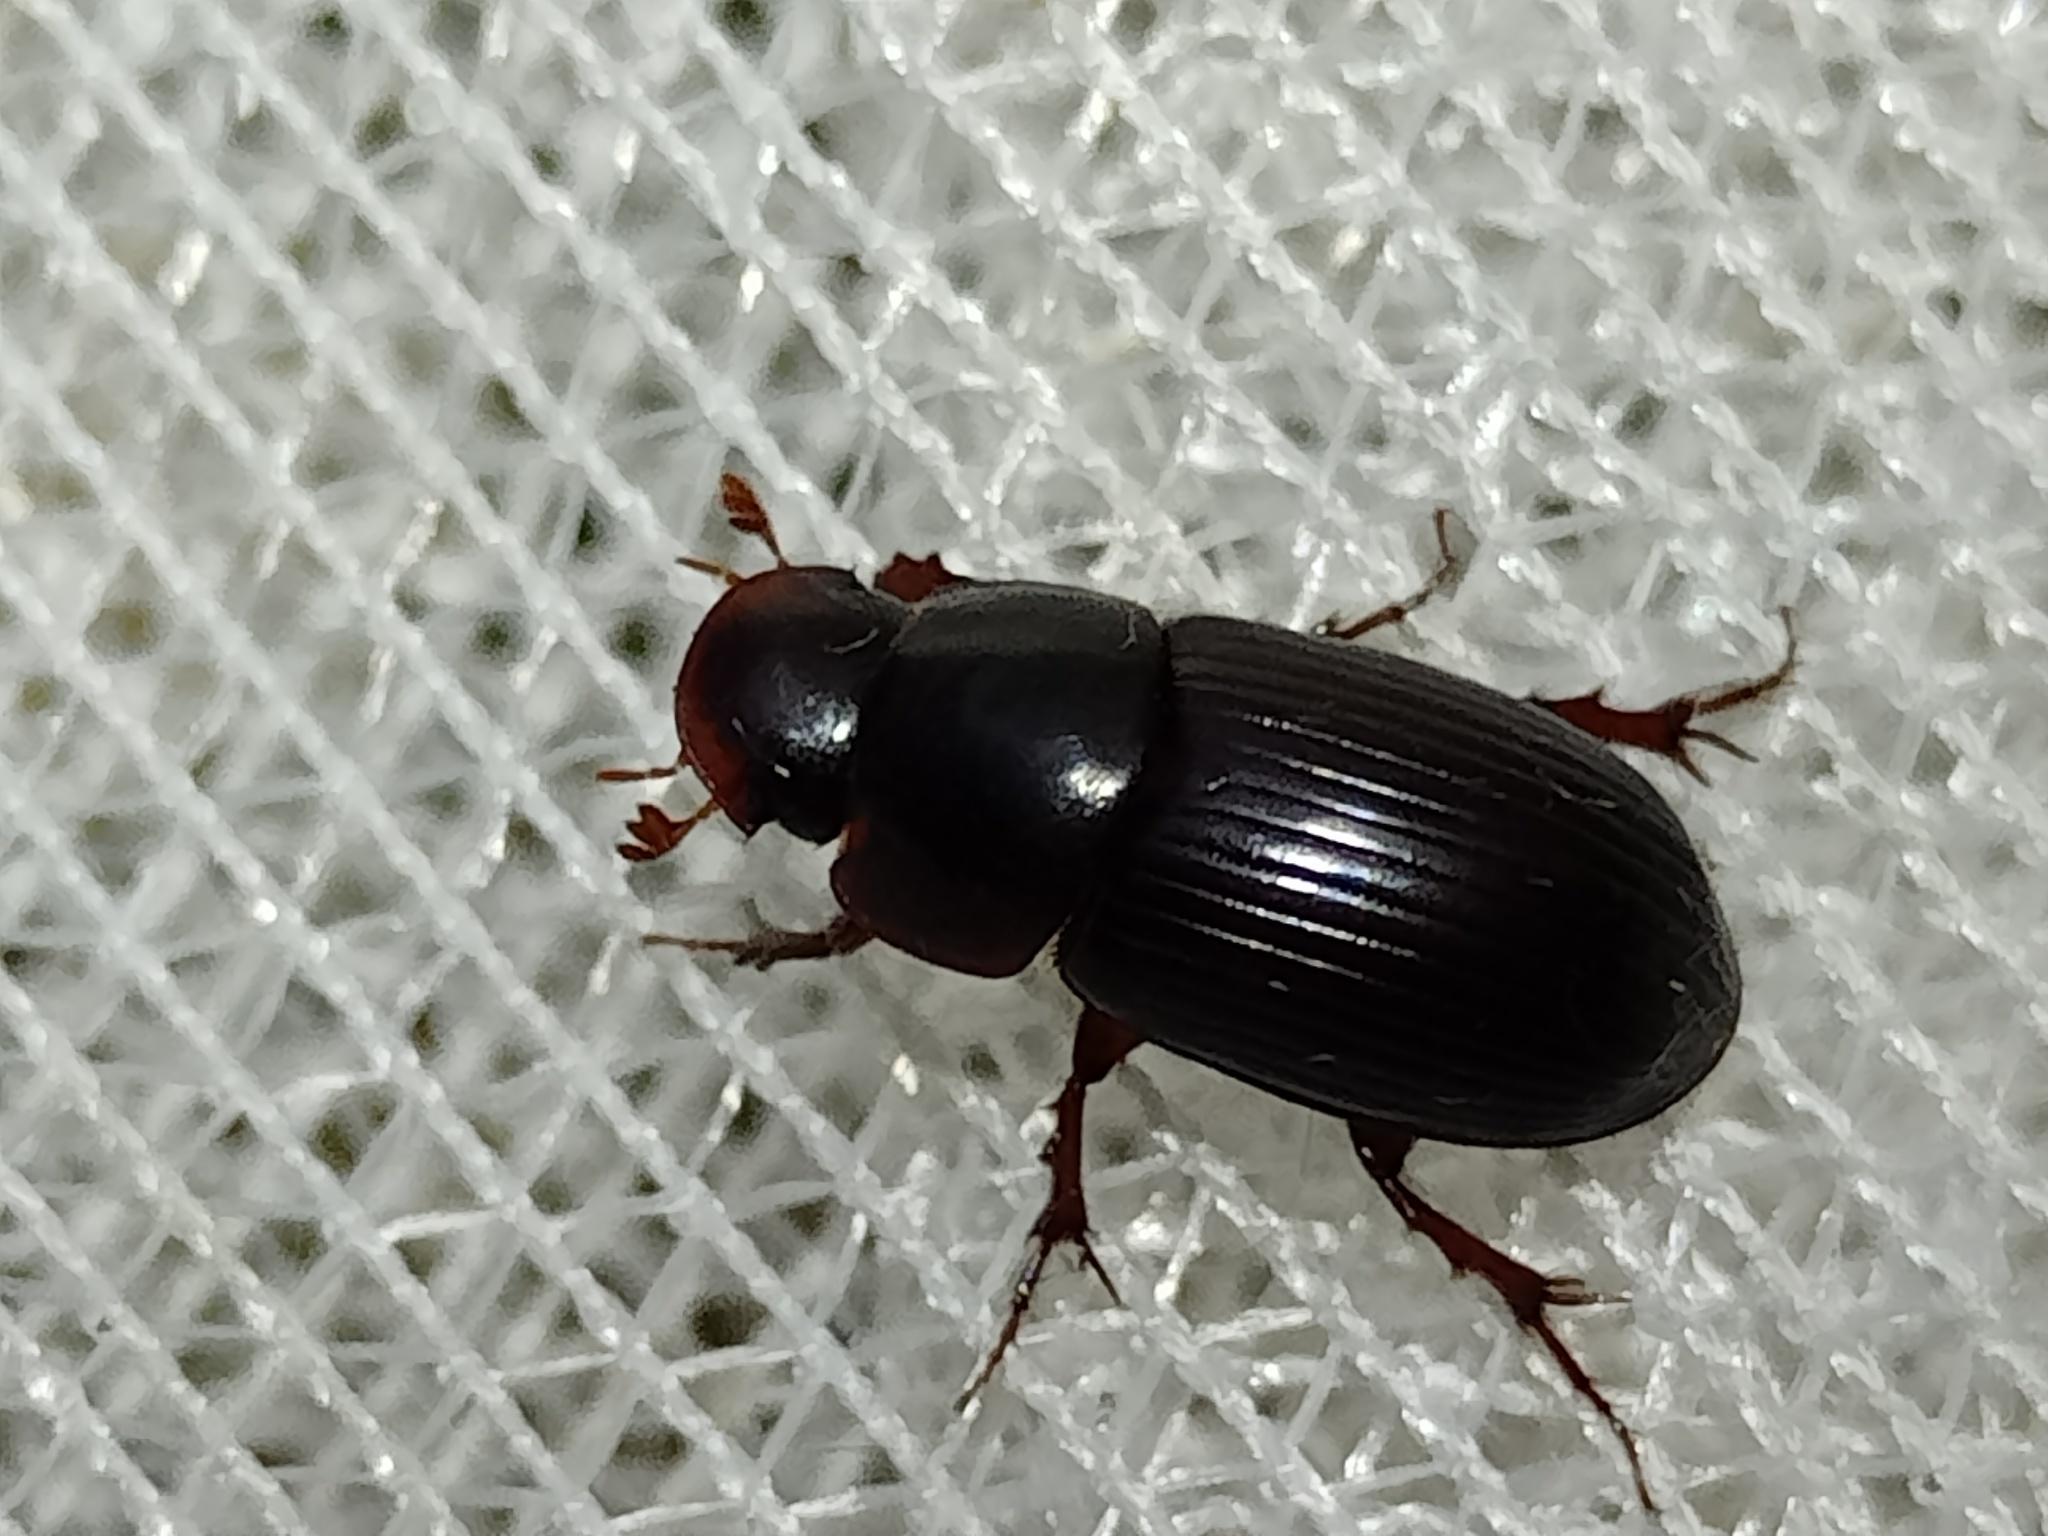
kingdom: Animalia
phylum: Arthropoda
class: Insecta
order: Coleoptera
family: Scarabaeidae
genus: Acrossus
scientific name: Acrossus rufipes
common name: Night-flying dung beetle
